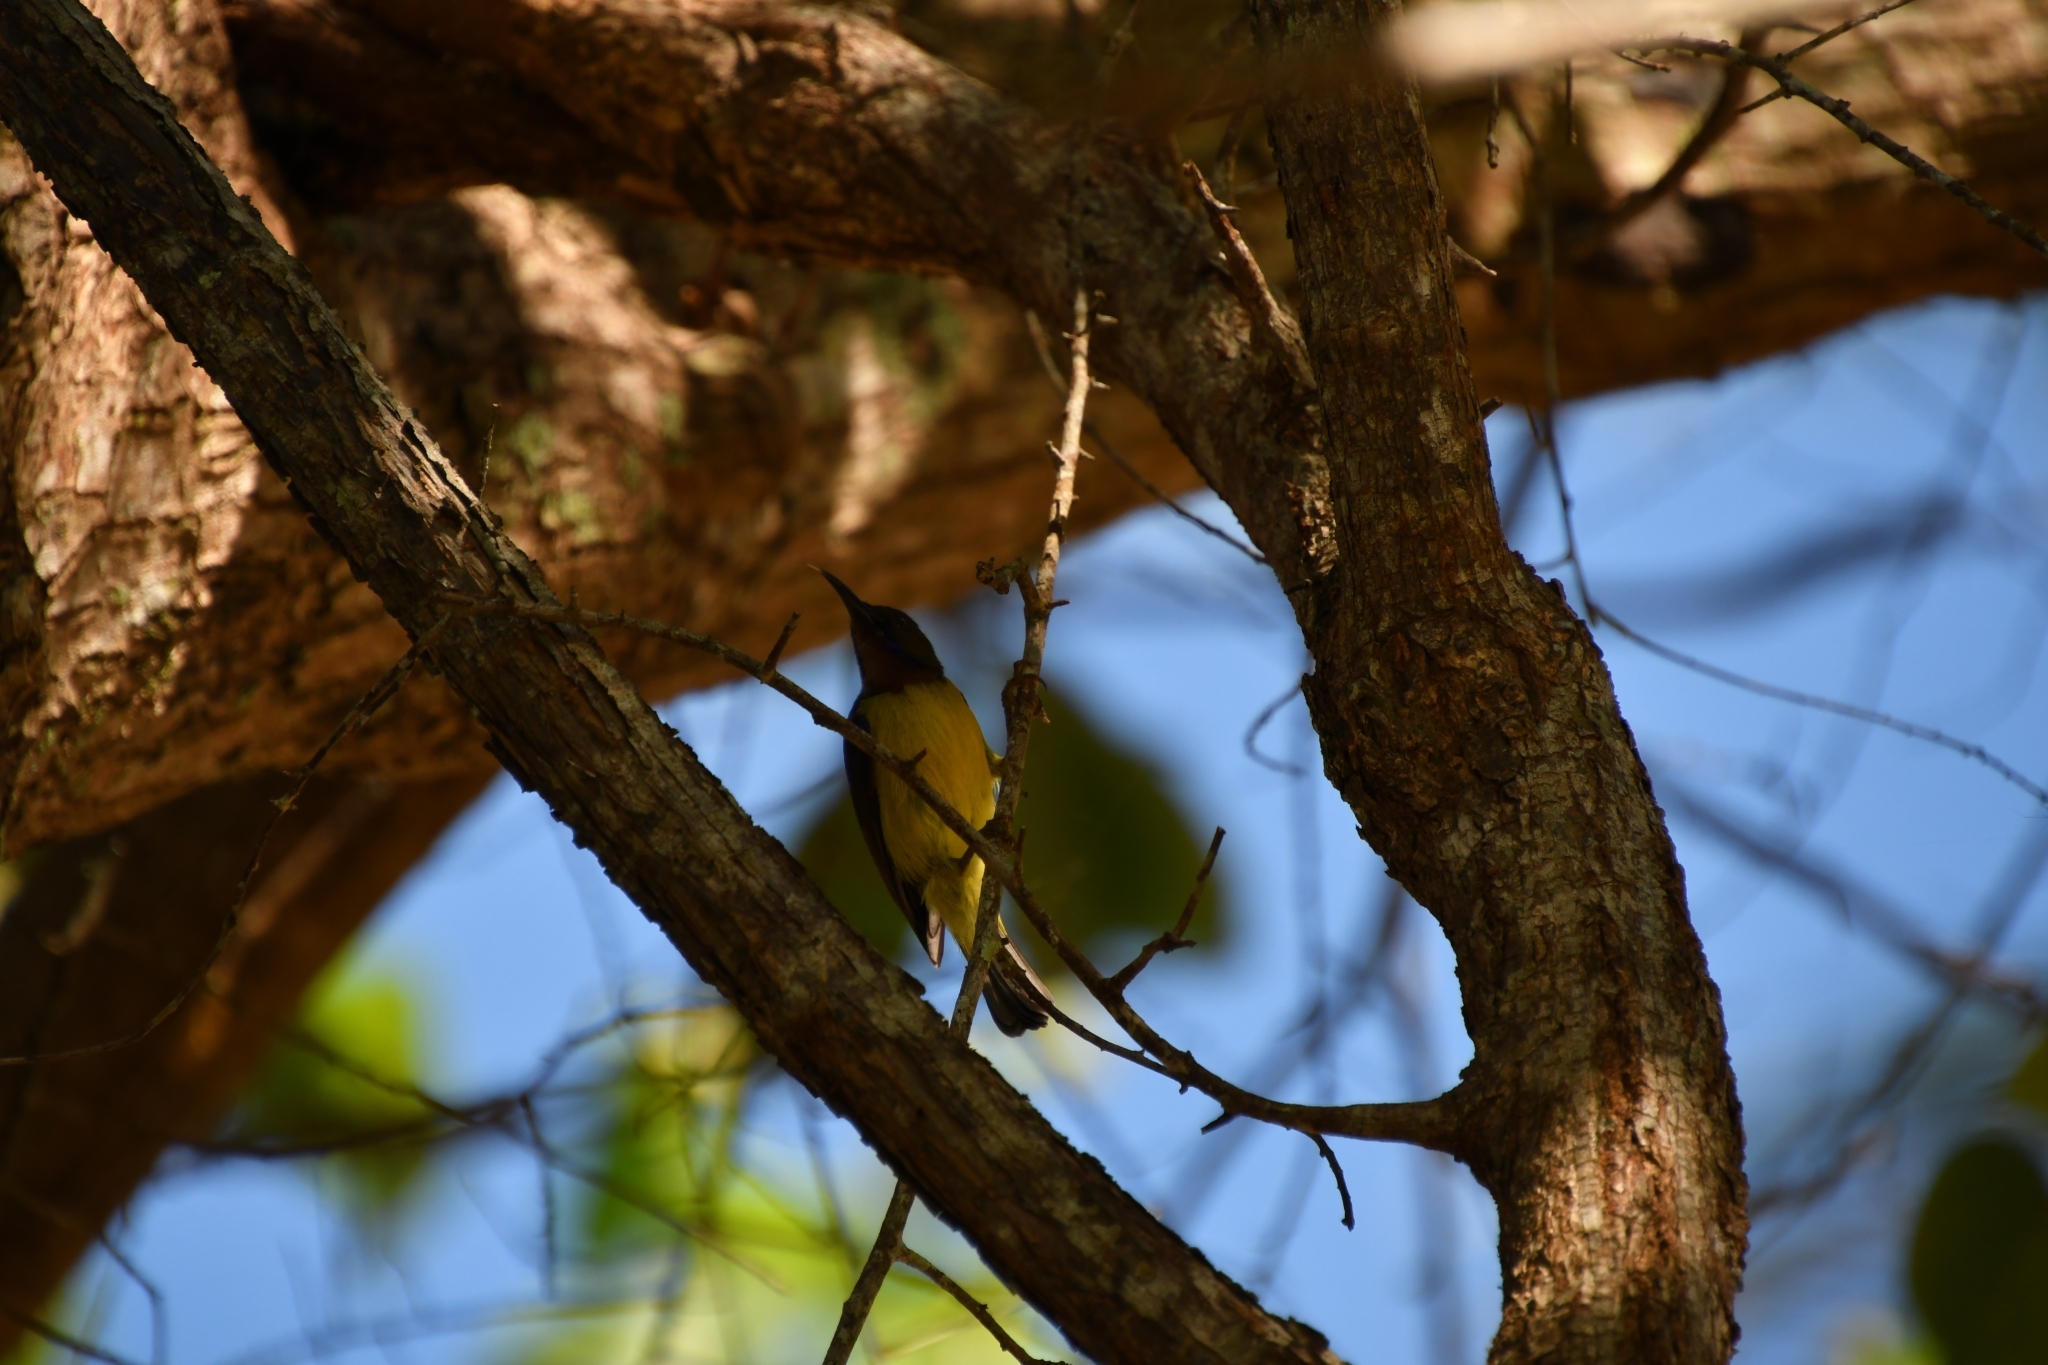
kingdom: Animalia
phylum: Chordata
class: Aves
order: Passeriformes
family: Nectariniidae
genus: Anthreptes
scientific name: Anthreptes malacensis
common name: Brown-throated sunbird
